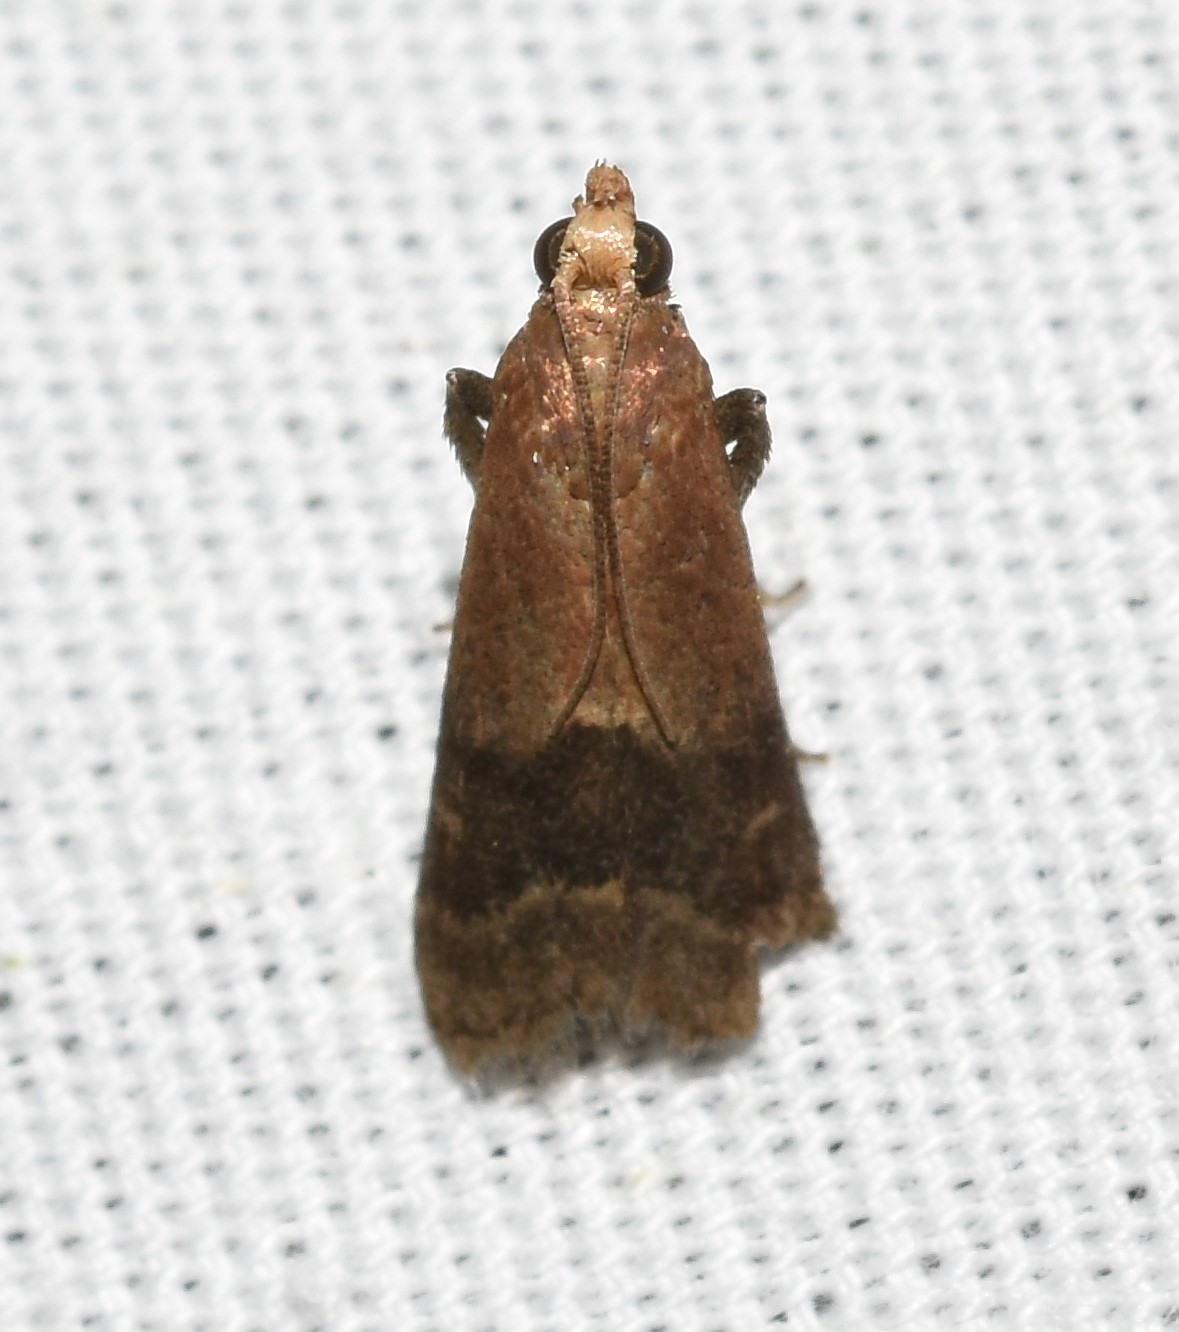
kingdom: Animalia
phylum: Arthropoda
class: Insecta
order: Lepidoptera
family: Pyralidae
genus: Eulogia
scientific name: Eulogia ochrifrontella
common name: Broad-banded eulogia moth
